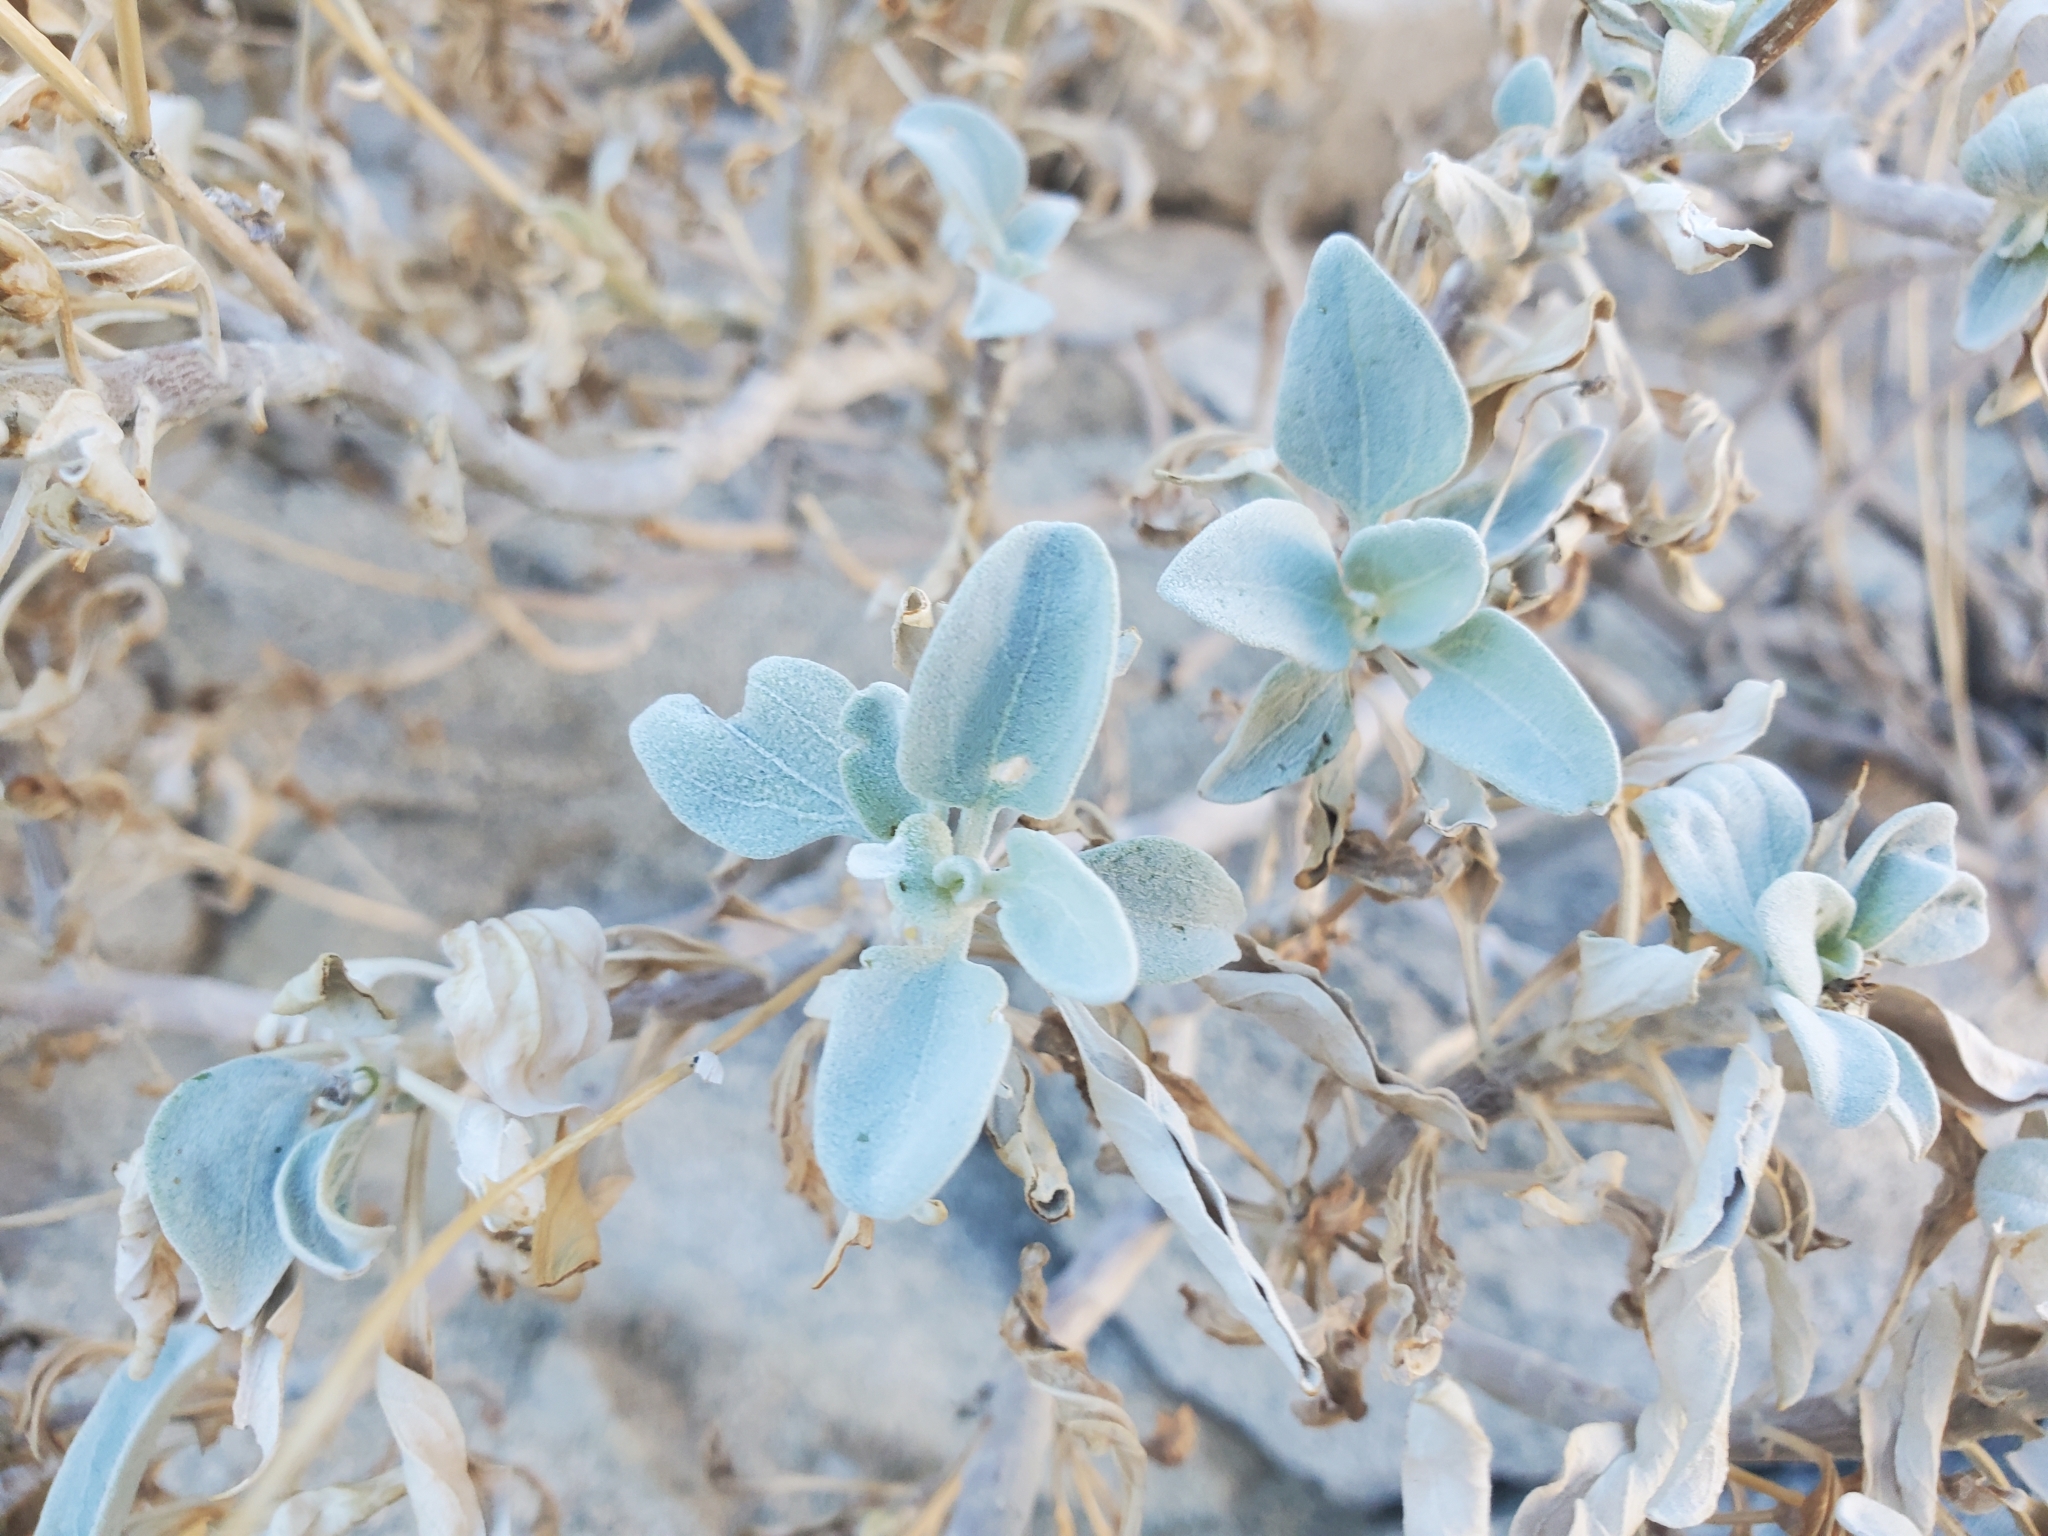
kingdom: Plantae
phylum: Tracheophyta
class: Magnoliopsida
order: Asterales
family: Asteraceae
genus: Encelia
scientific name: Encelia farinosa
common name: Brittlebush
